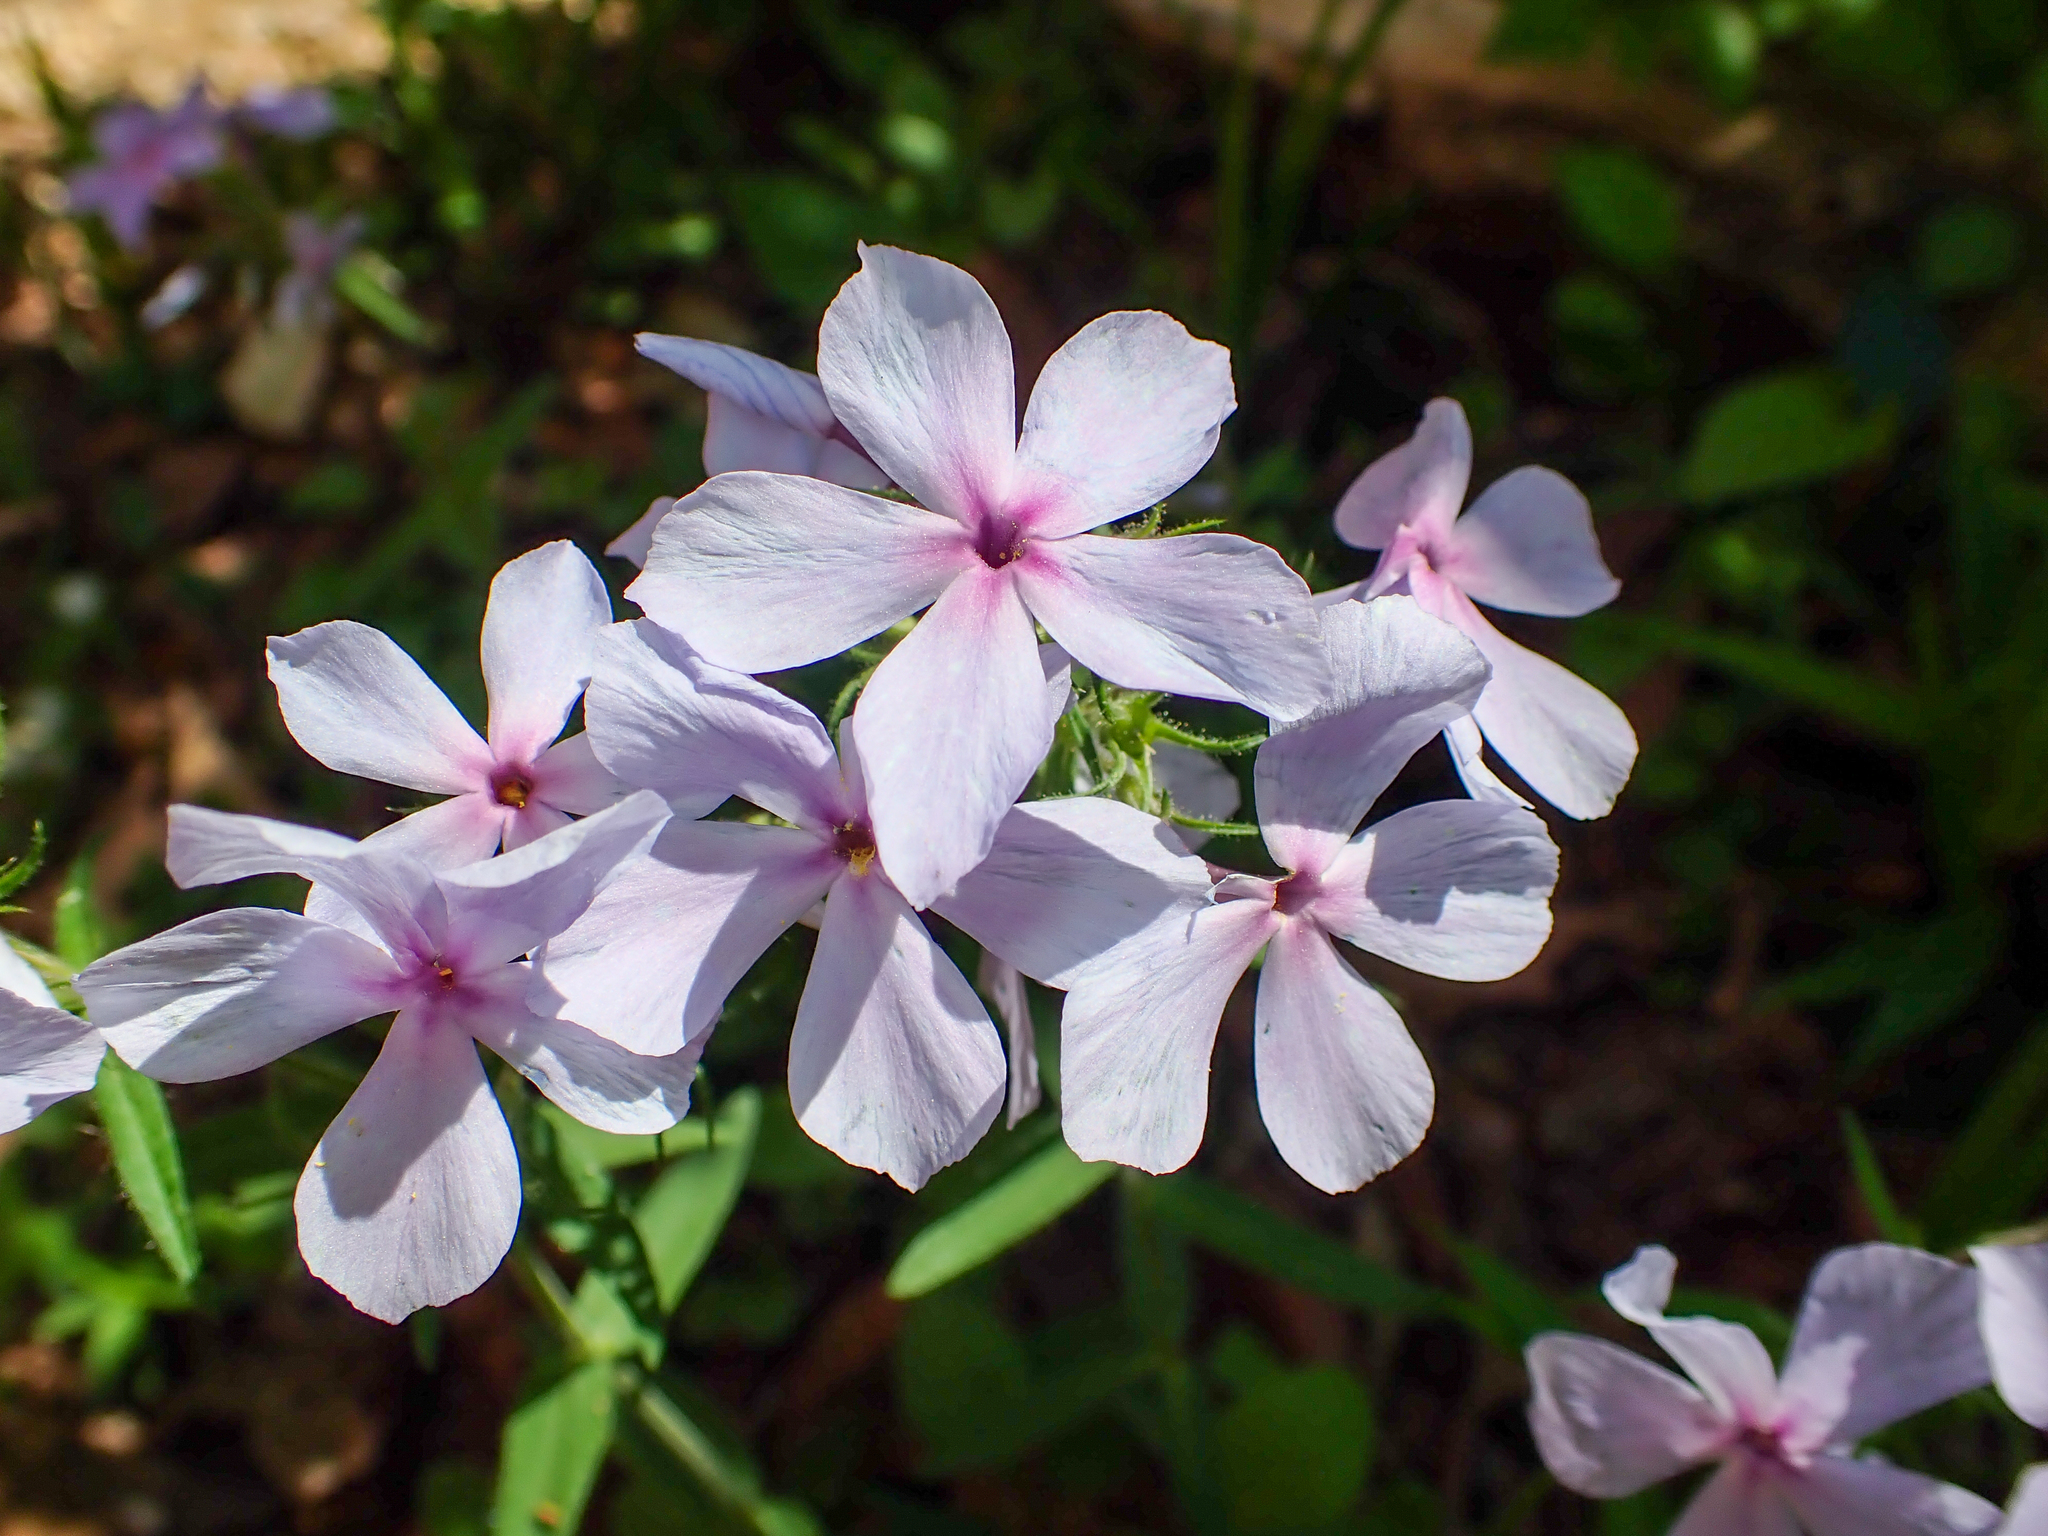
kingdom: Plantae
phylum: Tracheophyta
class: Magnoliopsida
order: Ericales
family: Polemoniaceae
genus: Phlox
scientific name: Phlox divaricata
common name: Blue phlox
